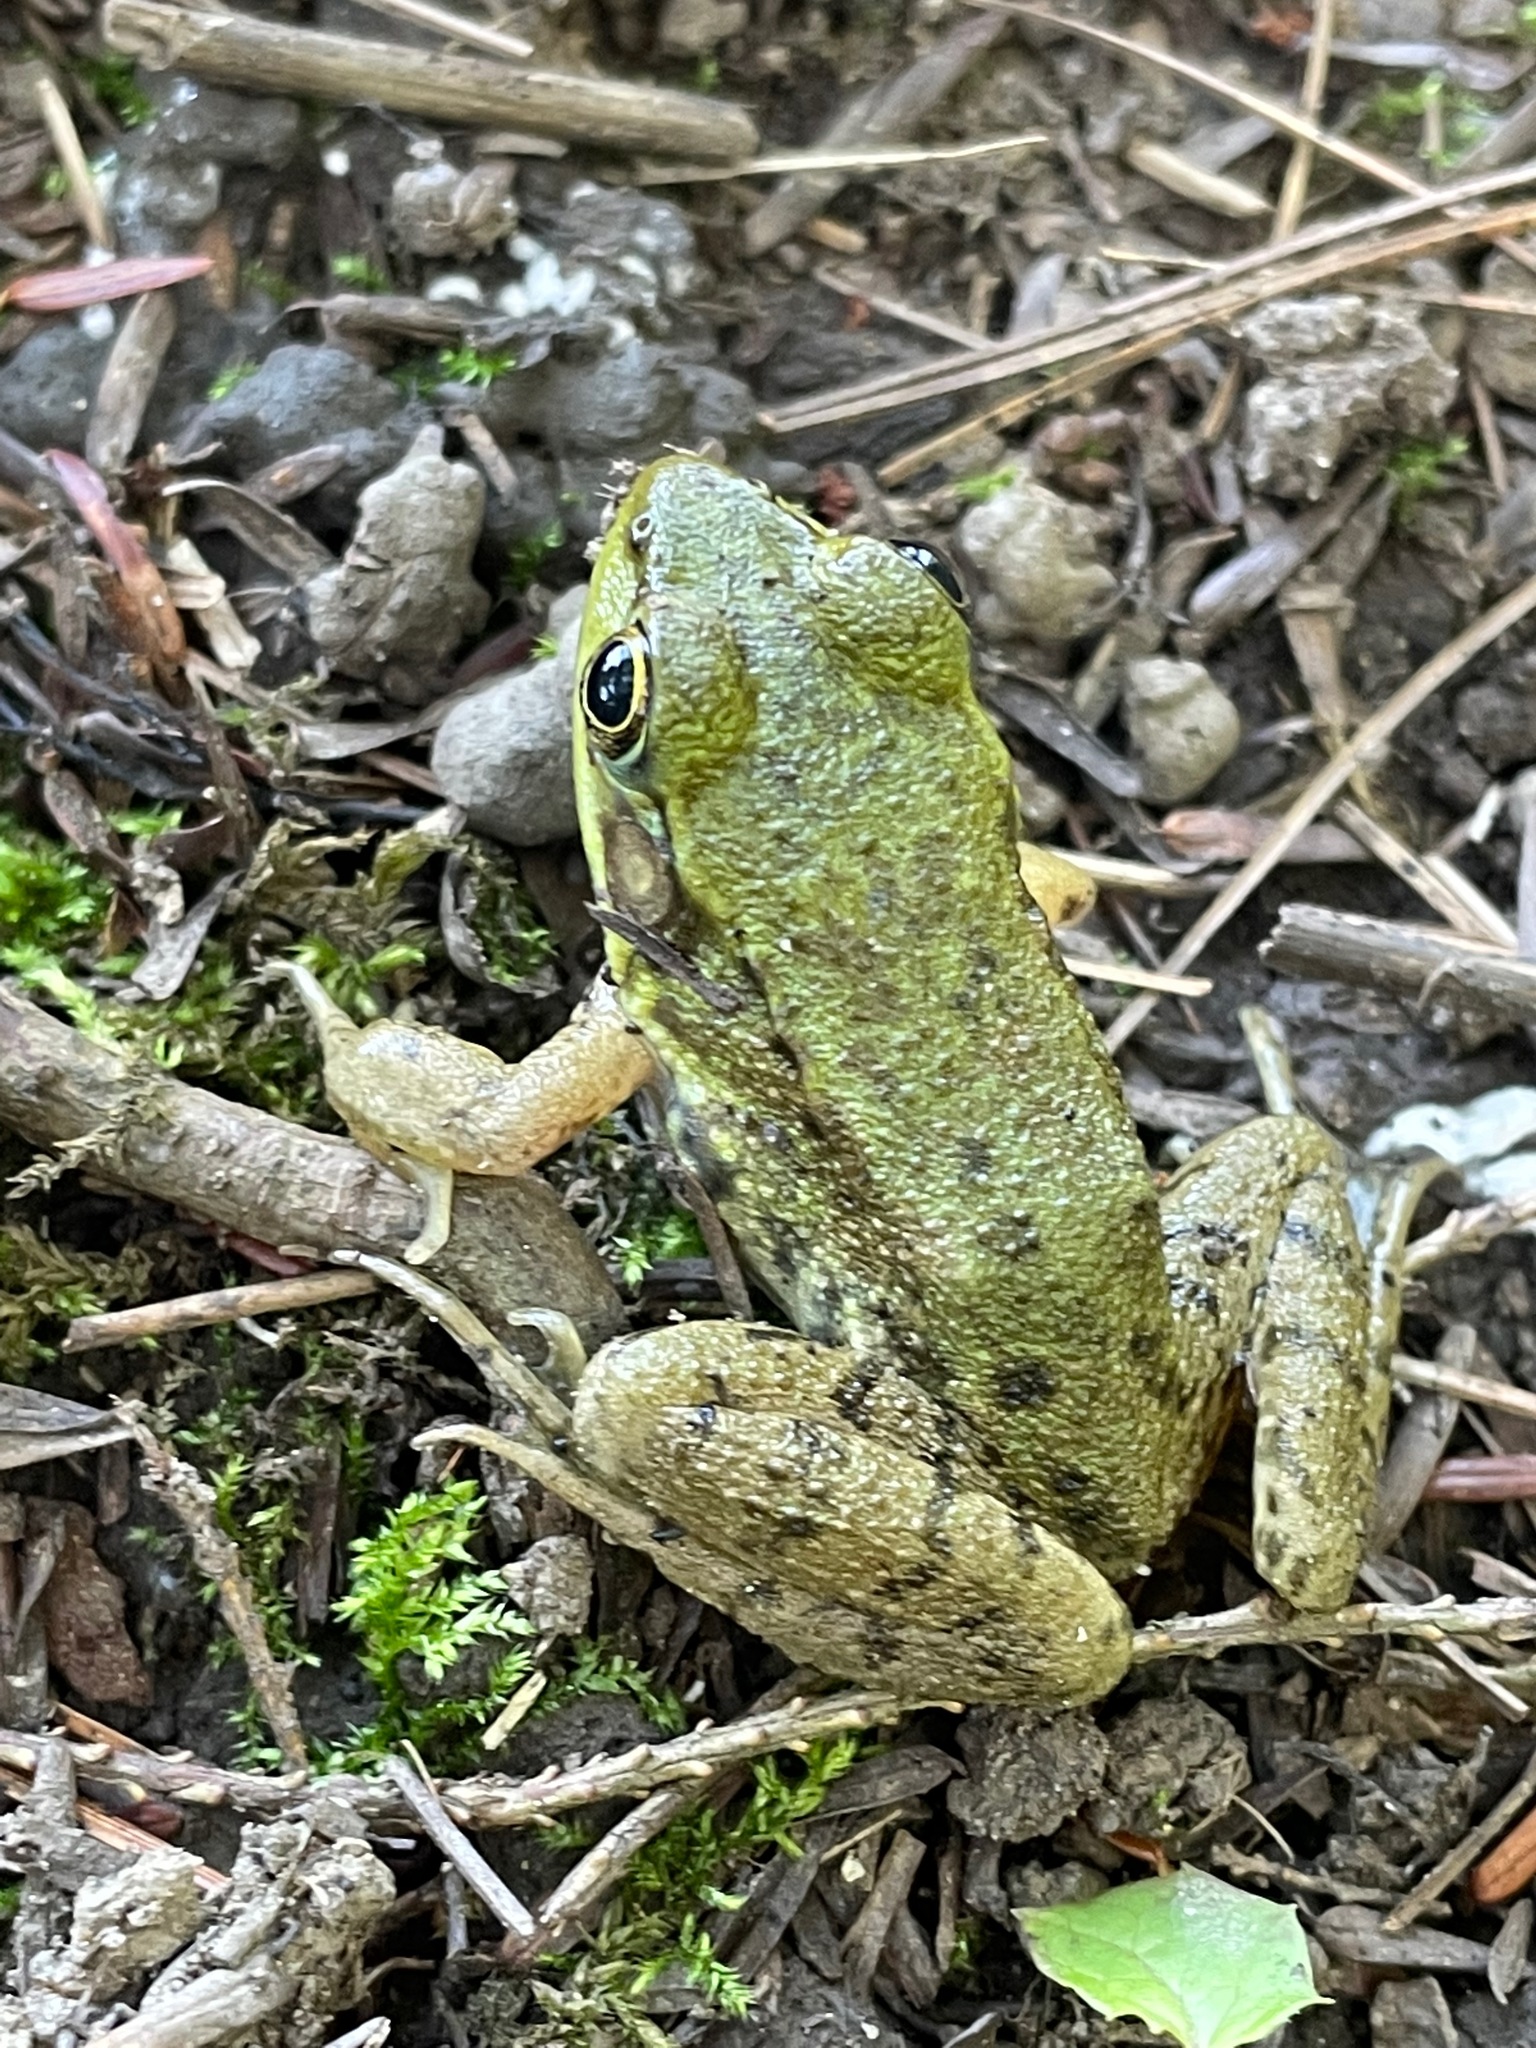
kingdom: Animalia
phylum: Chordata
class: Amphibia
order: Anura
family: Ranidae
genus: Lithobates
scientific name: Lithobates clamitans
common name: Green frog
